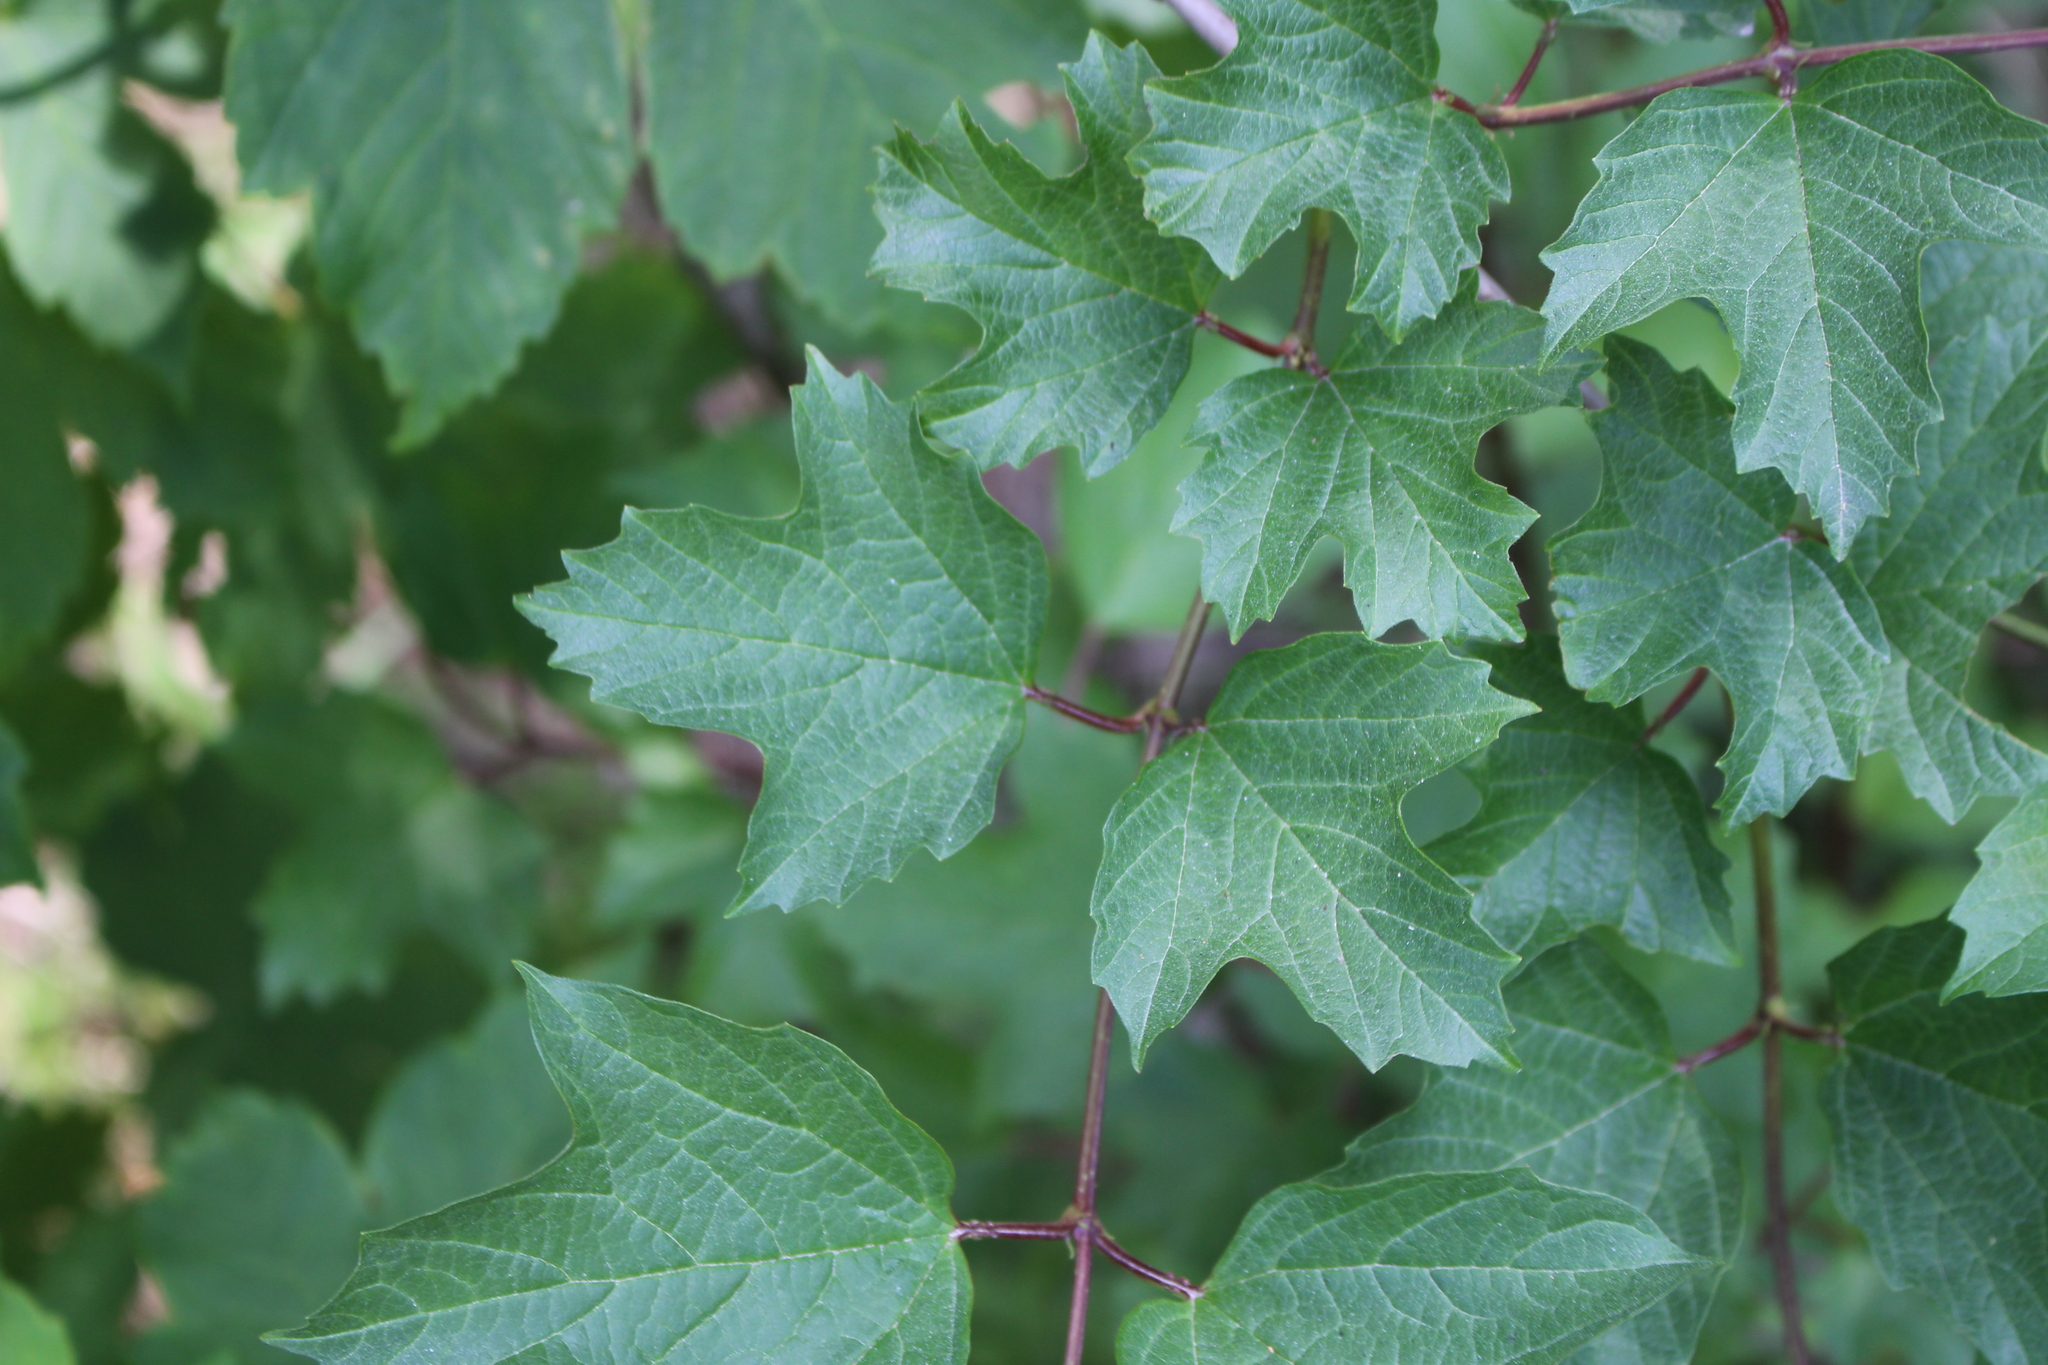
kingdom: Plantae
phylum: Tracheophyta
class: Magnoliopsida
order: Dipsacales
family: Viburnaceae
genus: Viburnum
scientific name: Viburnum opulus
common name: Guelder-rose
